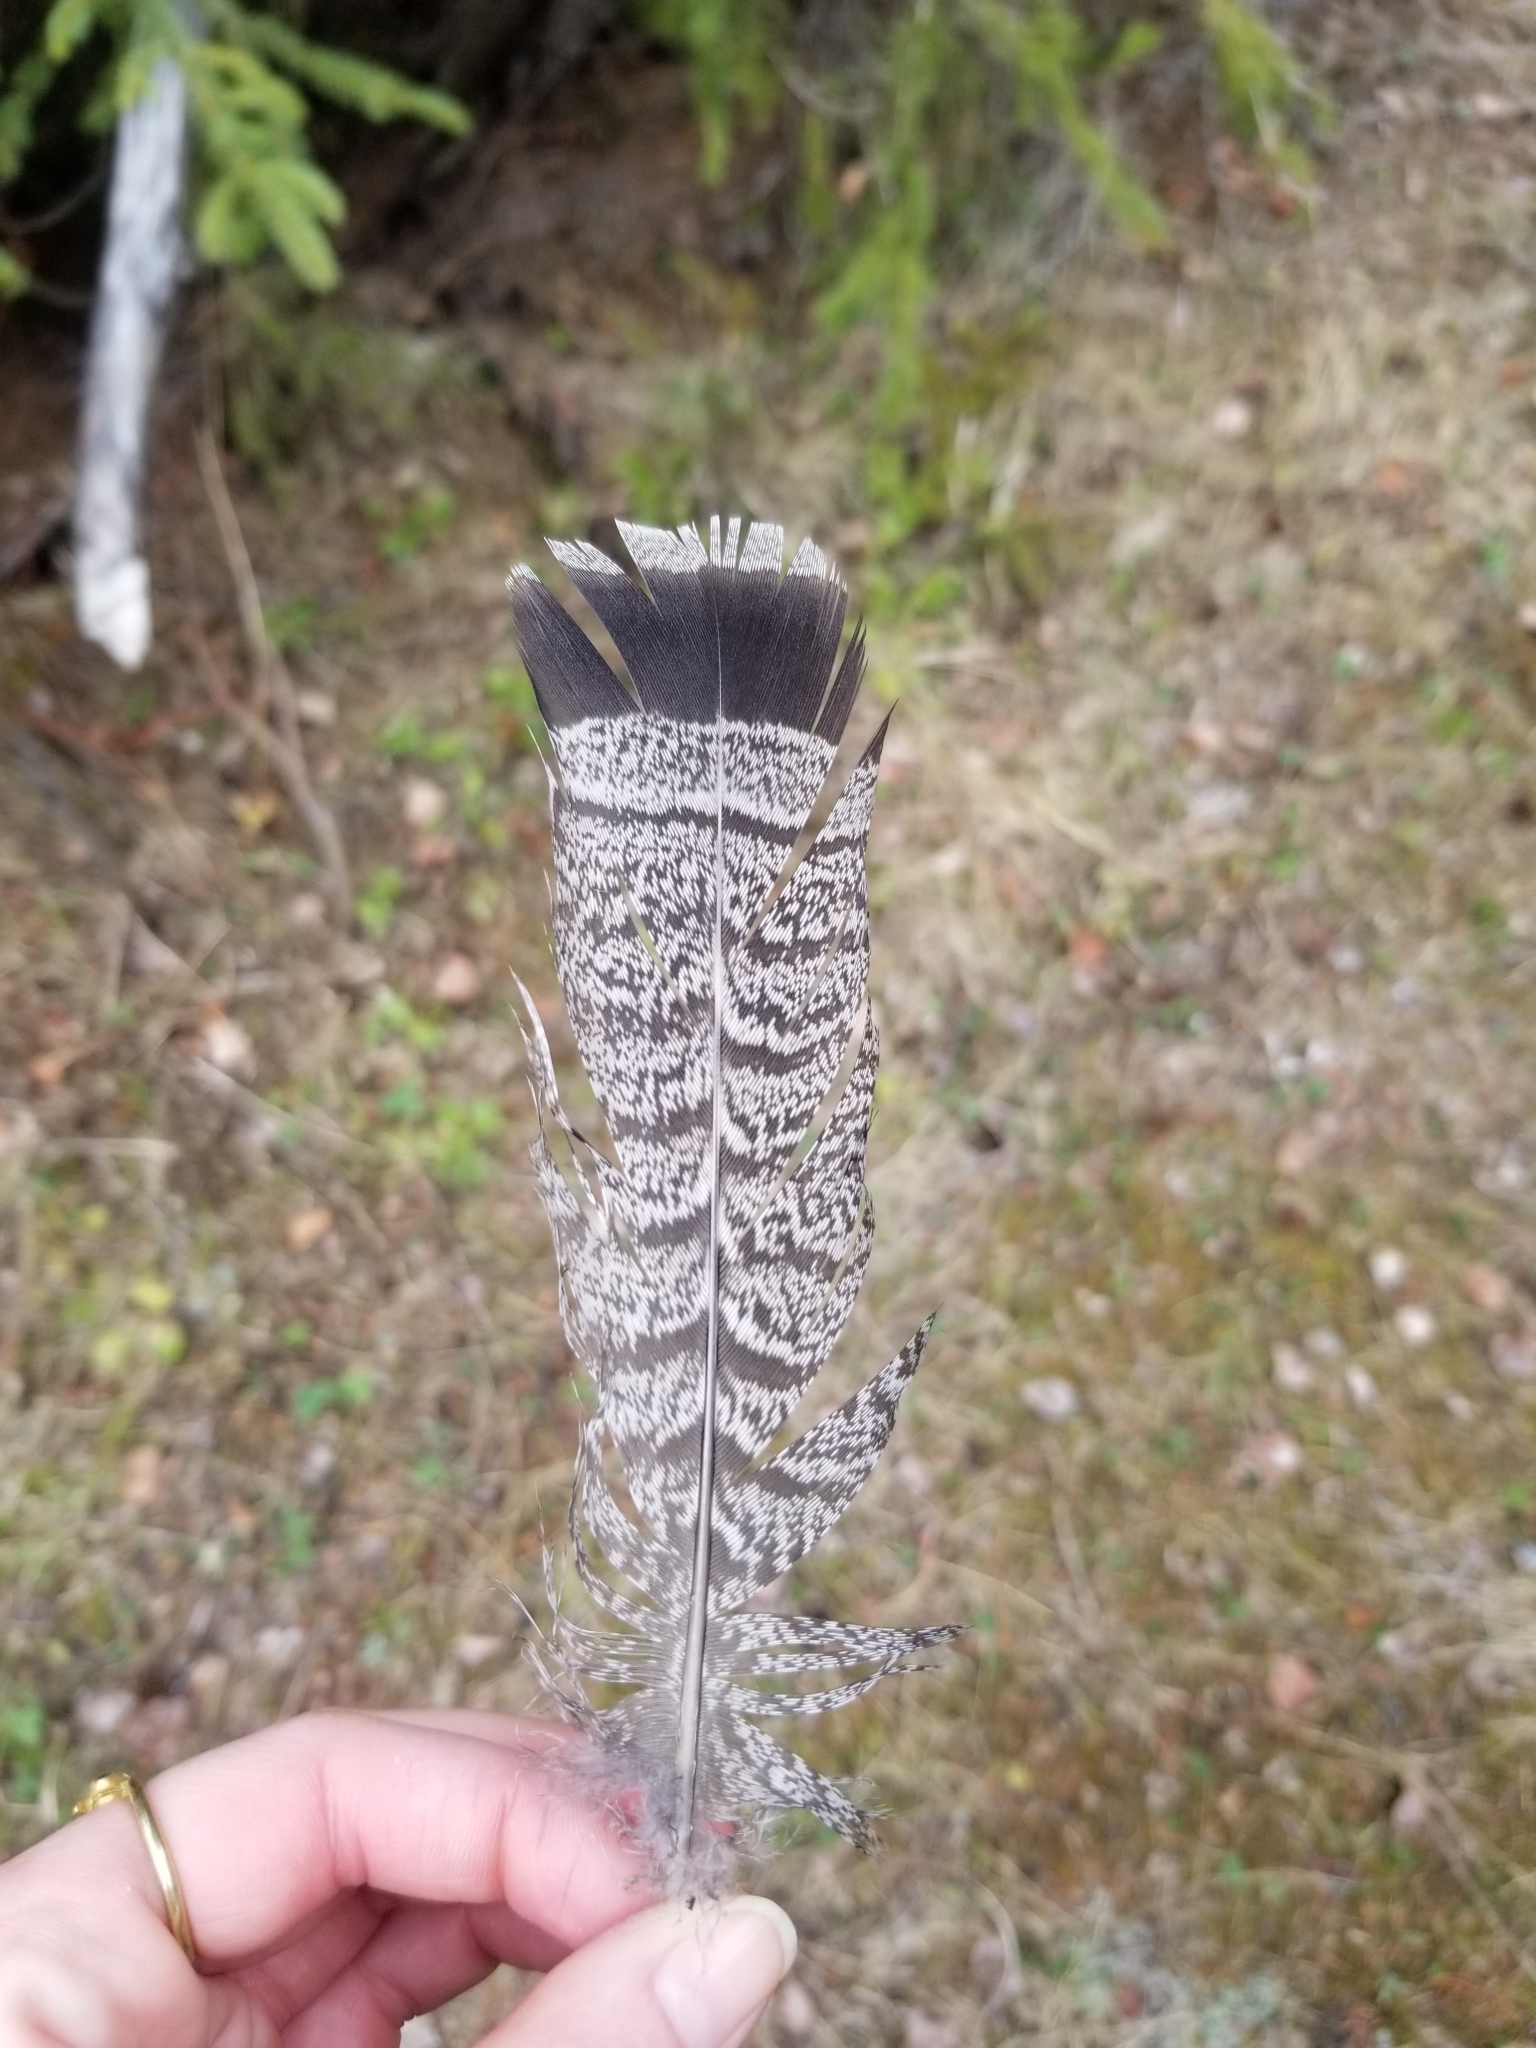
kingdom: Animalia
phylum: Chordata
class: Aves
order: Galliformes
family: Phasianidae
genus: Bonasa
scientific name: Bonasa umbellus
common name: Ruffed grouse
